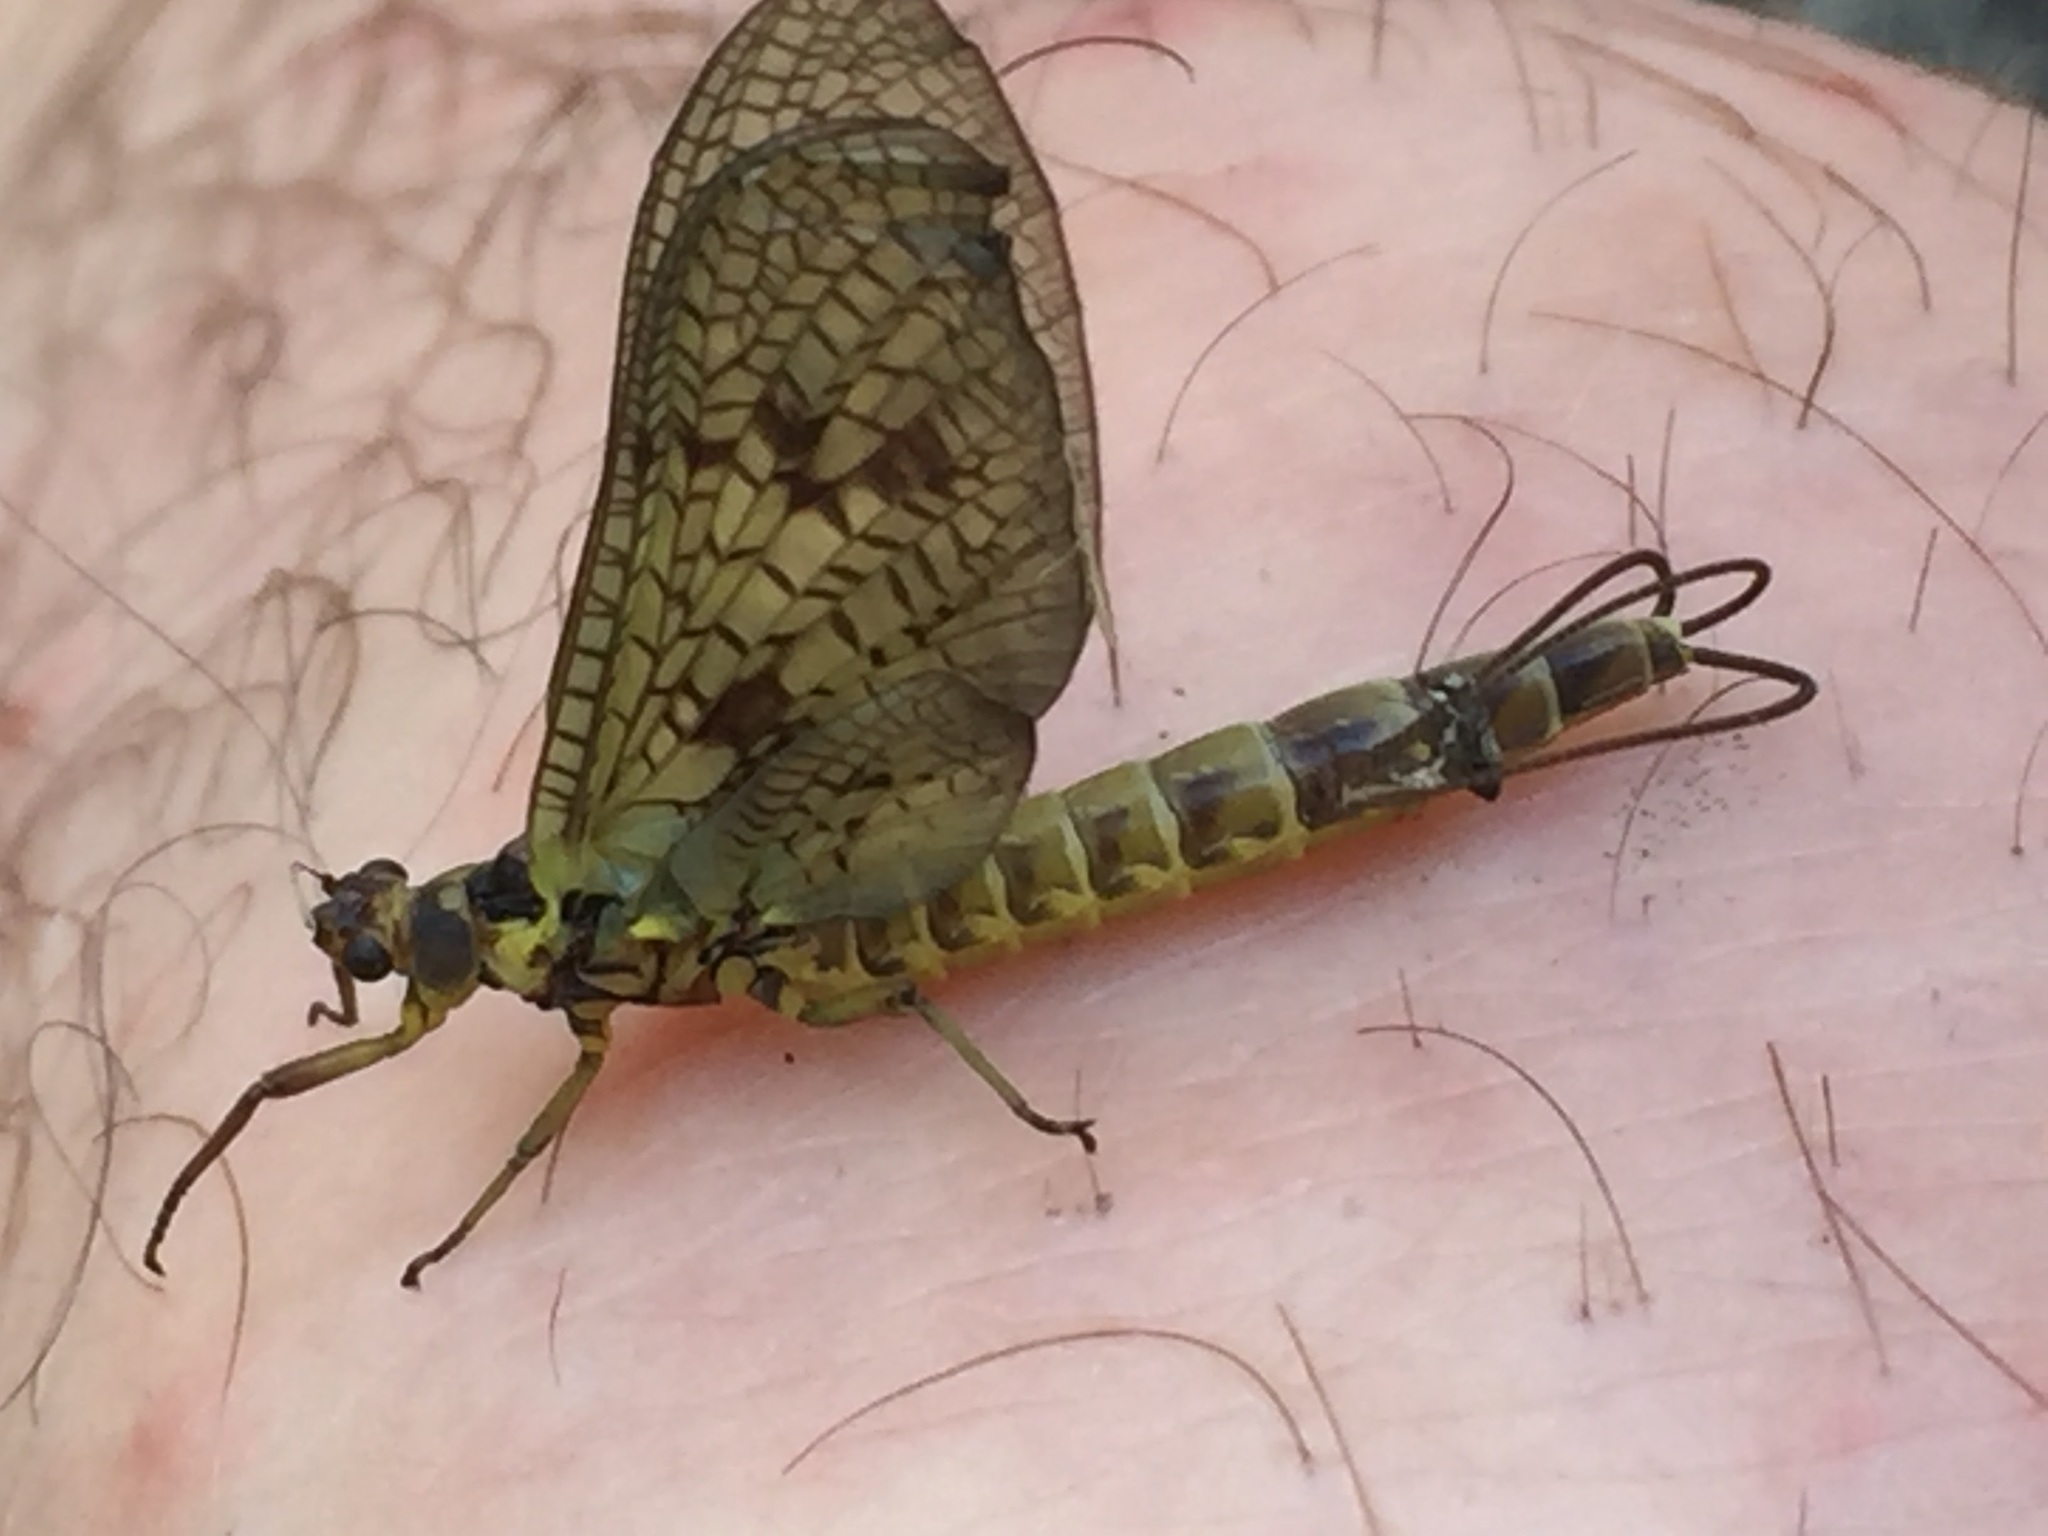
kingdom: Animalia
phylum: Arthropoda
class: Insecta
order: Ephemeroptera
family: Ephemeridae
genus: Ephemera
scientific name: Ephemera vulgata
